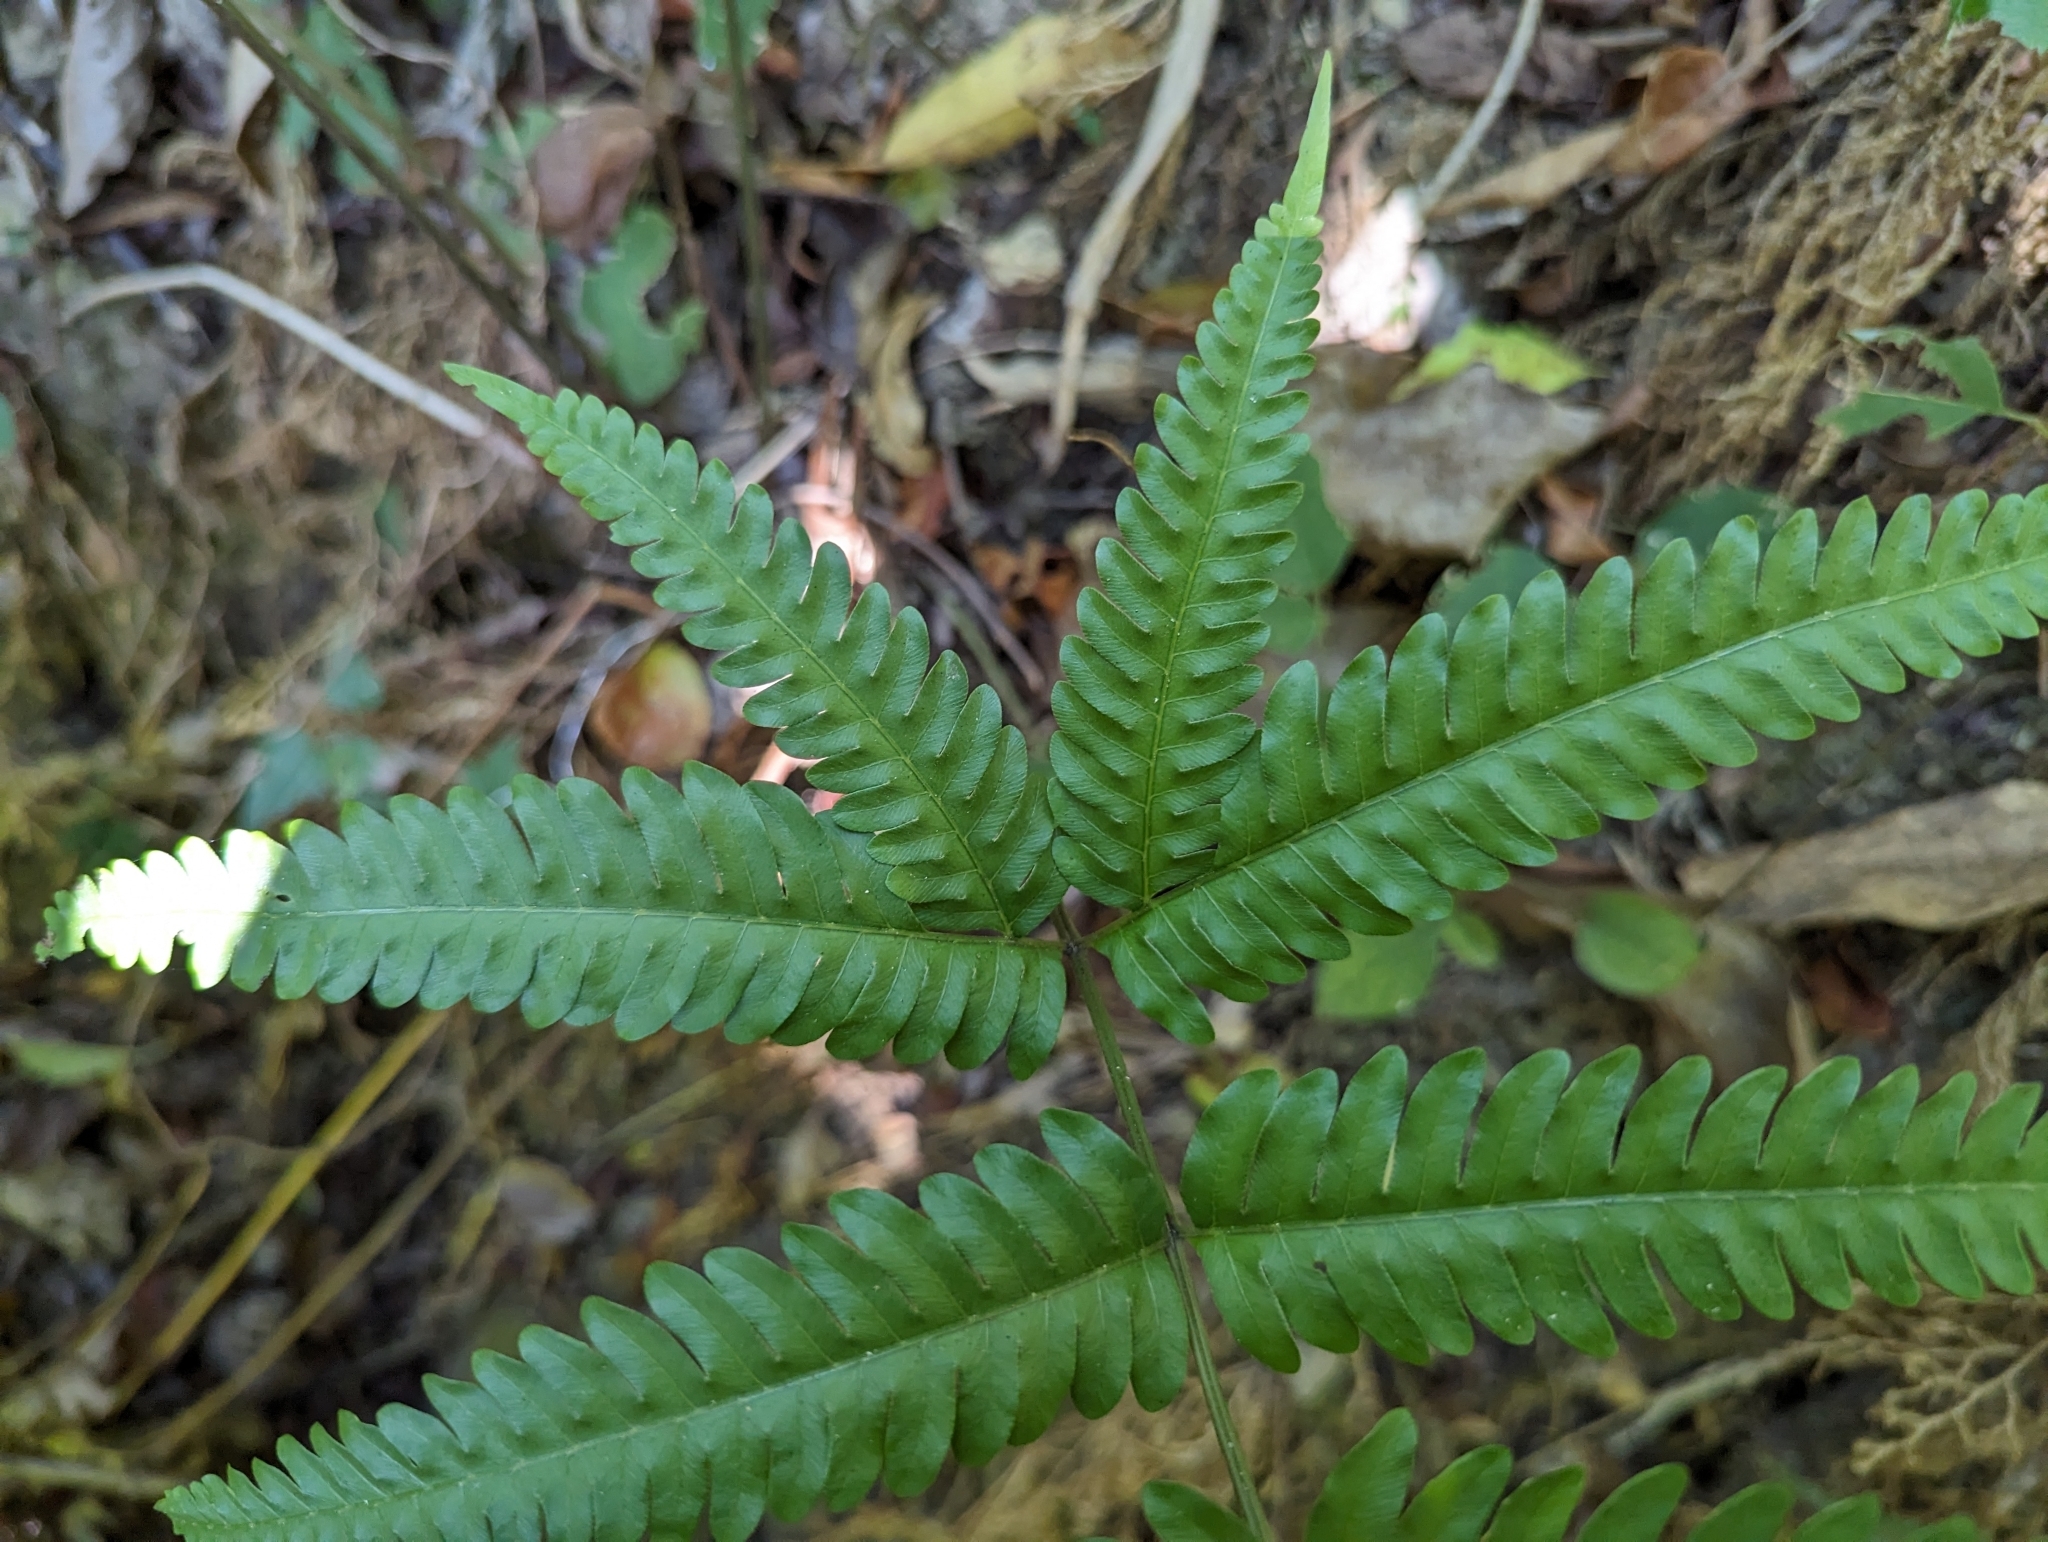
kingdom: Plantae
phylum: Tracheophyta
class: Polypodiopsida
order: Polypodiales
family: Pteridaceae
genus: Pteris
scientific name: Pteris arisanensis
